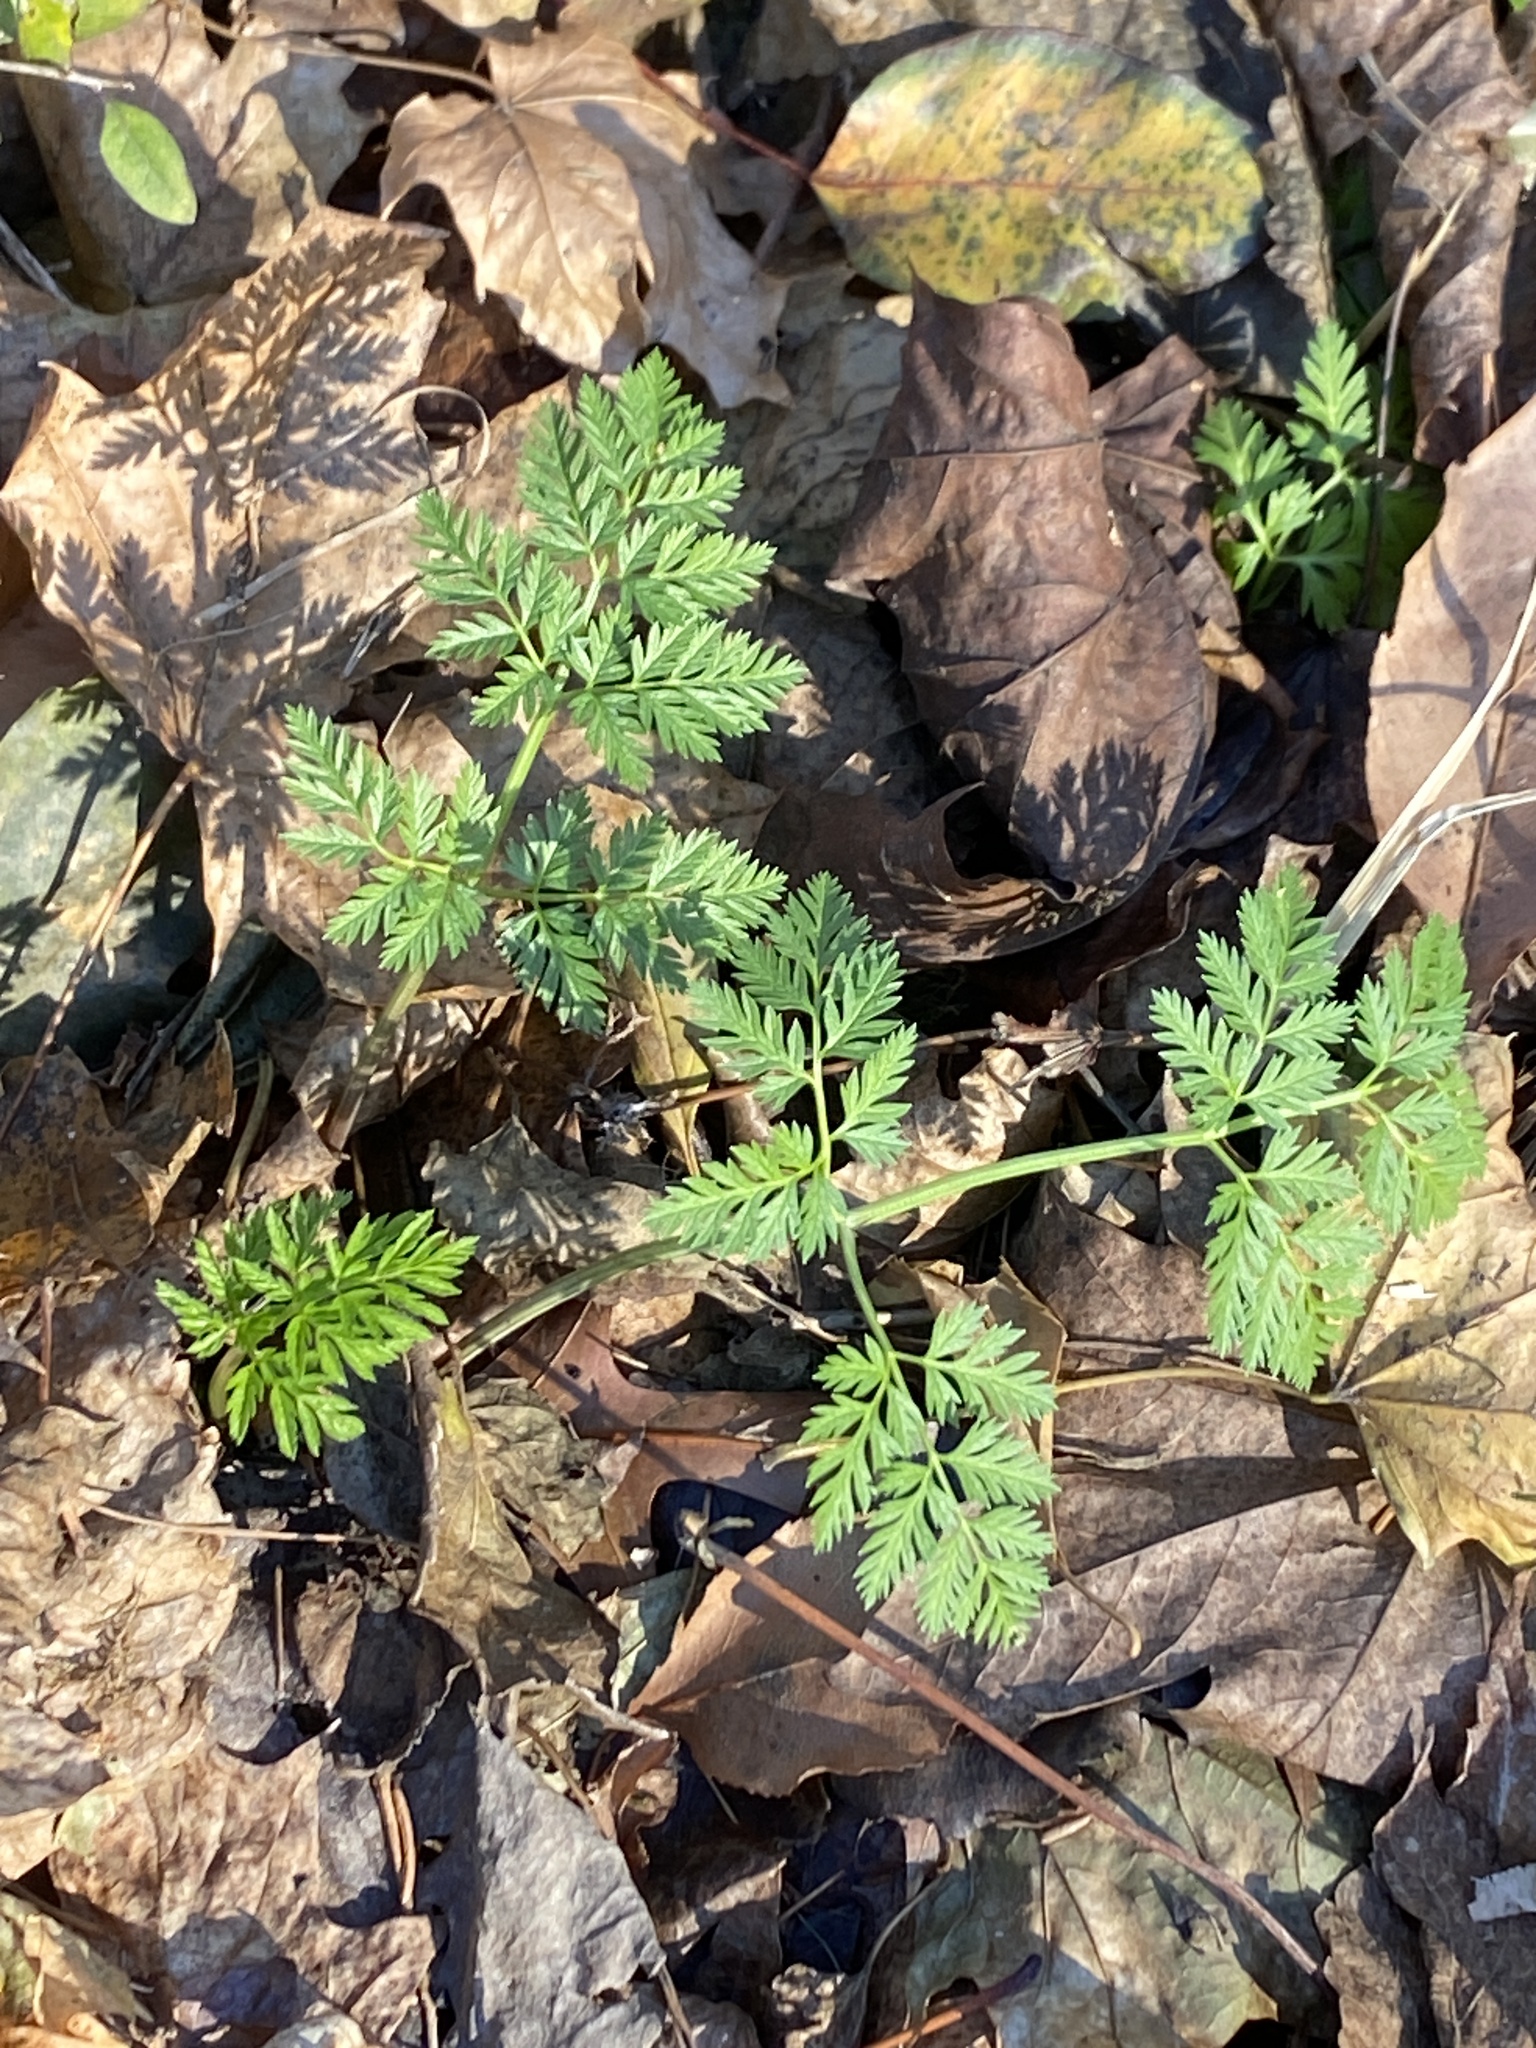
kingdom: Plantae
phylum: Tracheophyta
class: Magnoliopsida
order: Apiales
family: Apiaceae
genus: Conium
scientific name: Conium maculatum
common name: Hemlock
